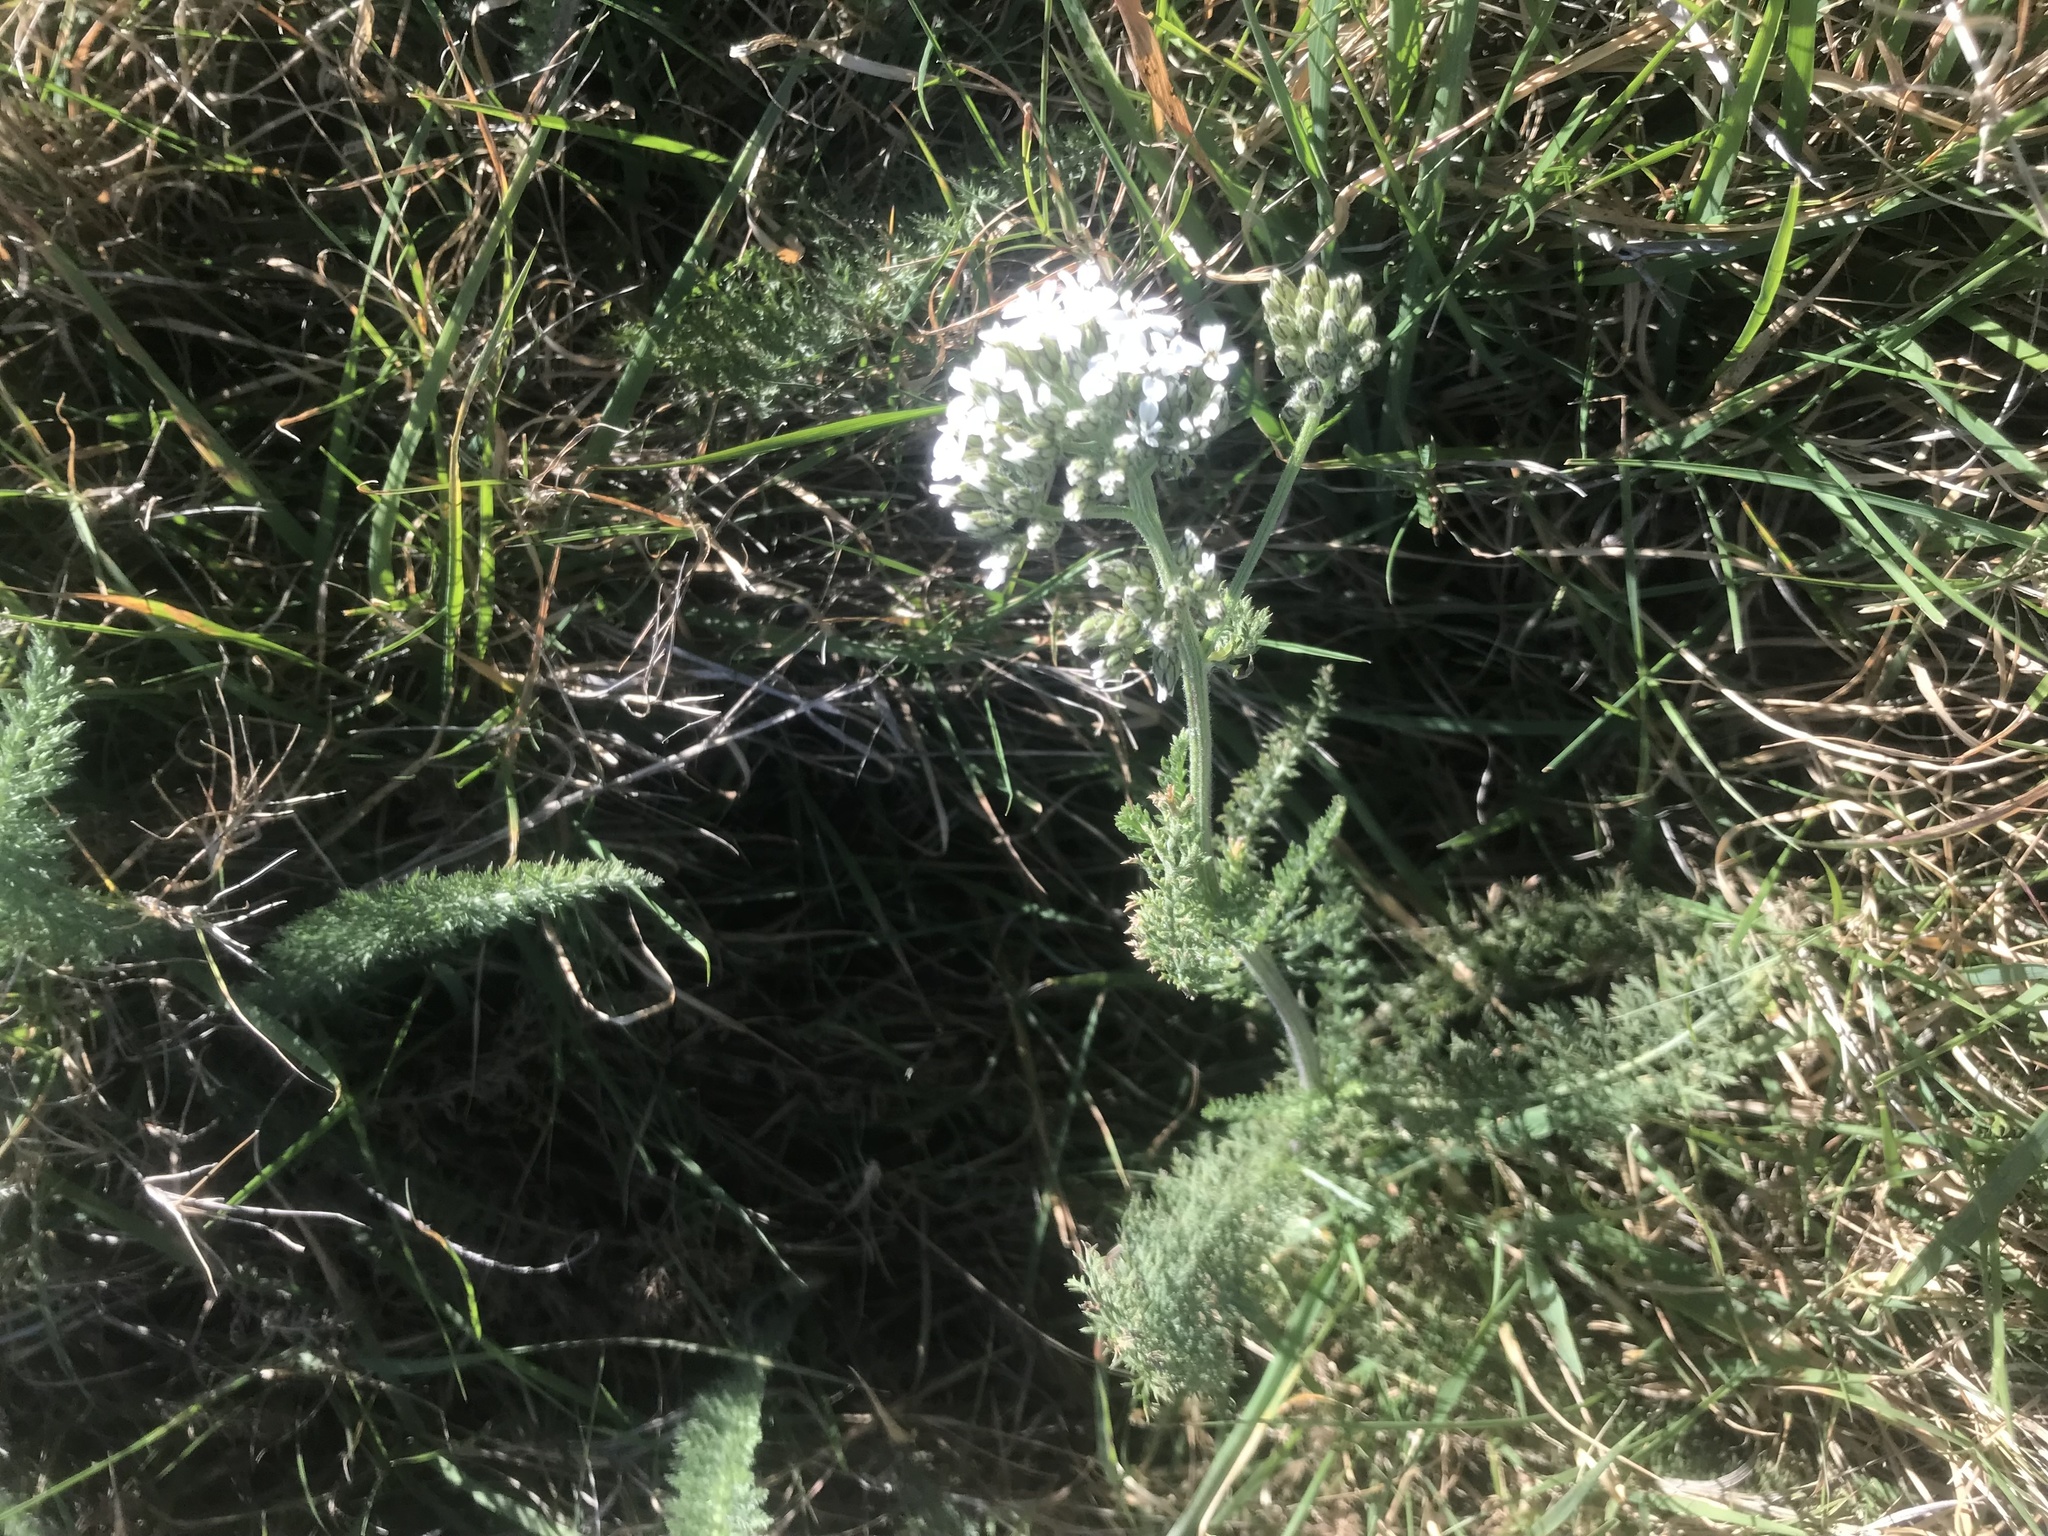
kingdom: Plantae
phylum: Tracheophyta
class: Magnoliopsida
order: Asterales
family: Asteraceae
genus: Achillea
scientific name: Achillea millefolium
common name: Yarrow
